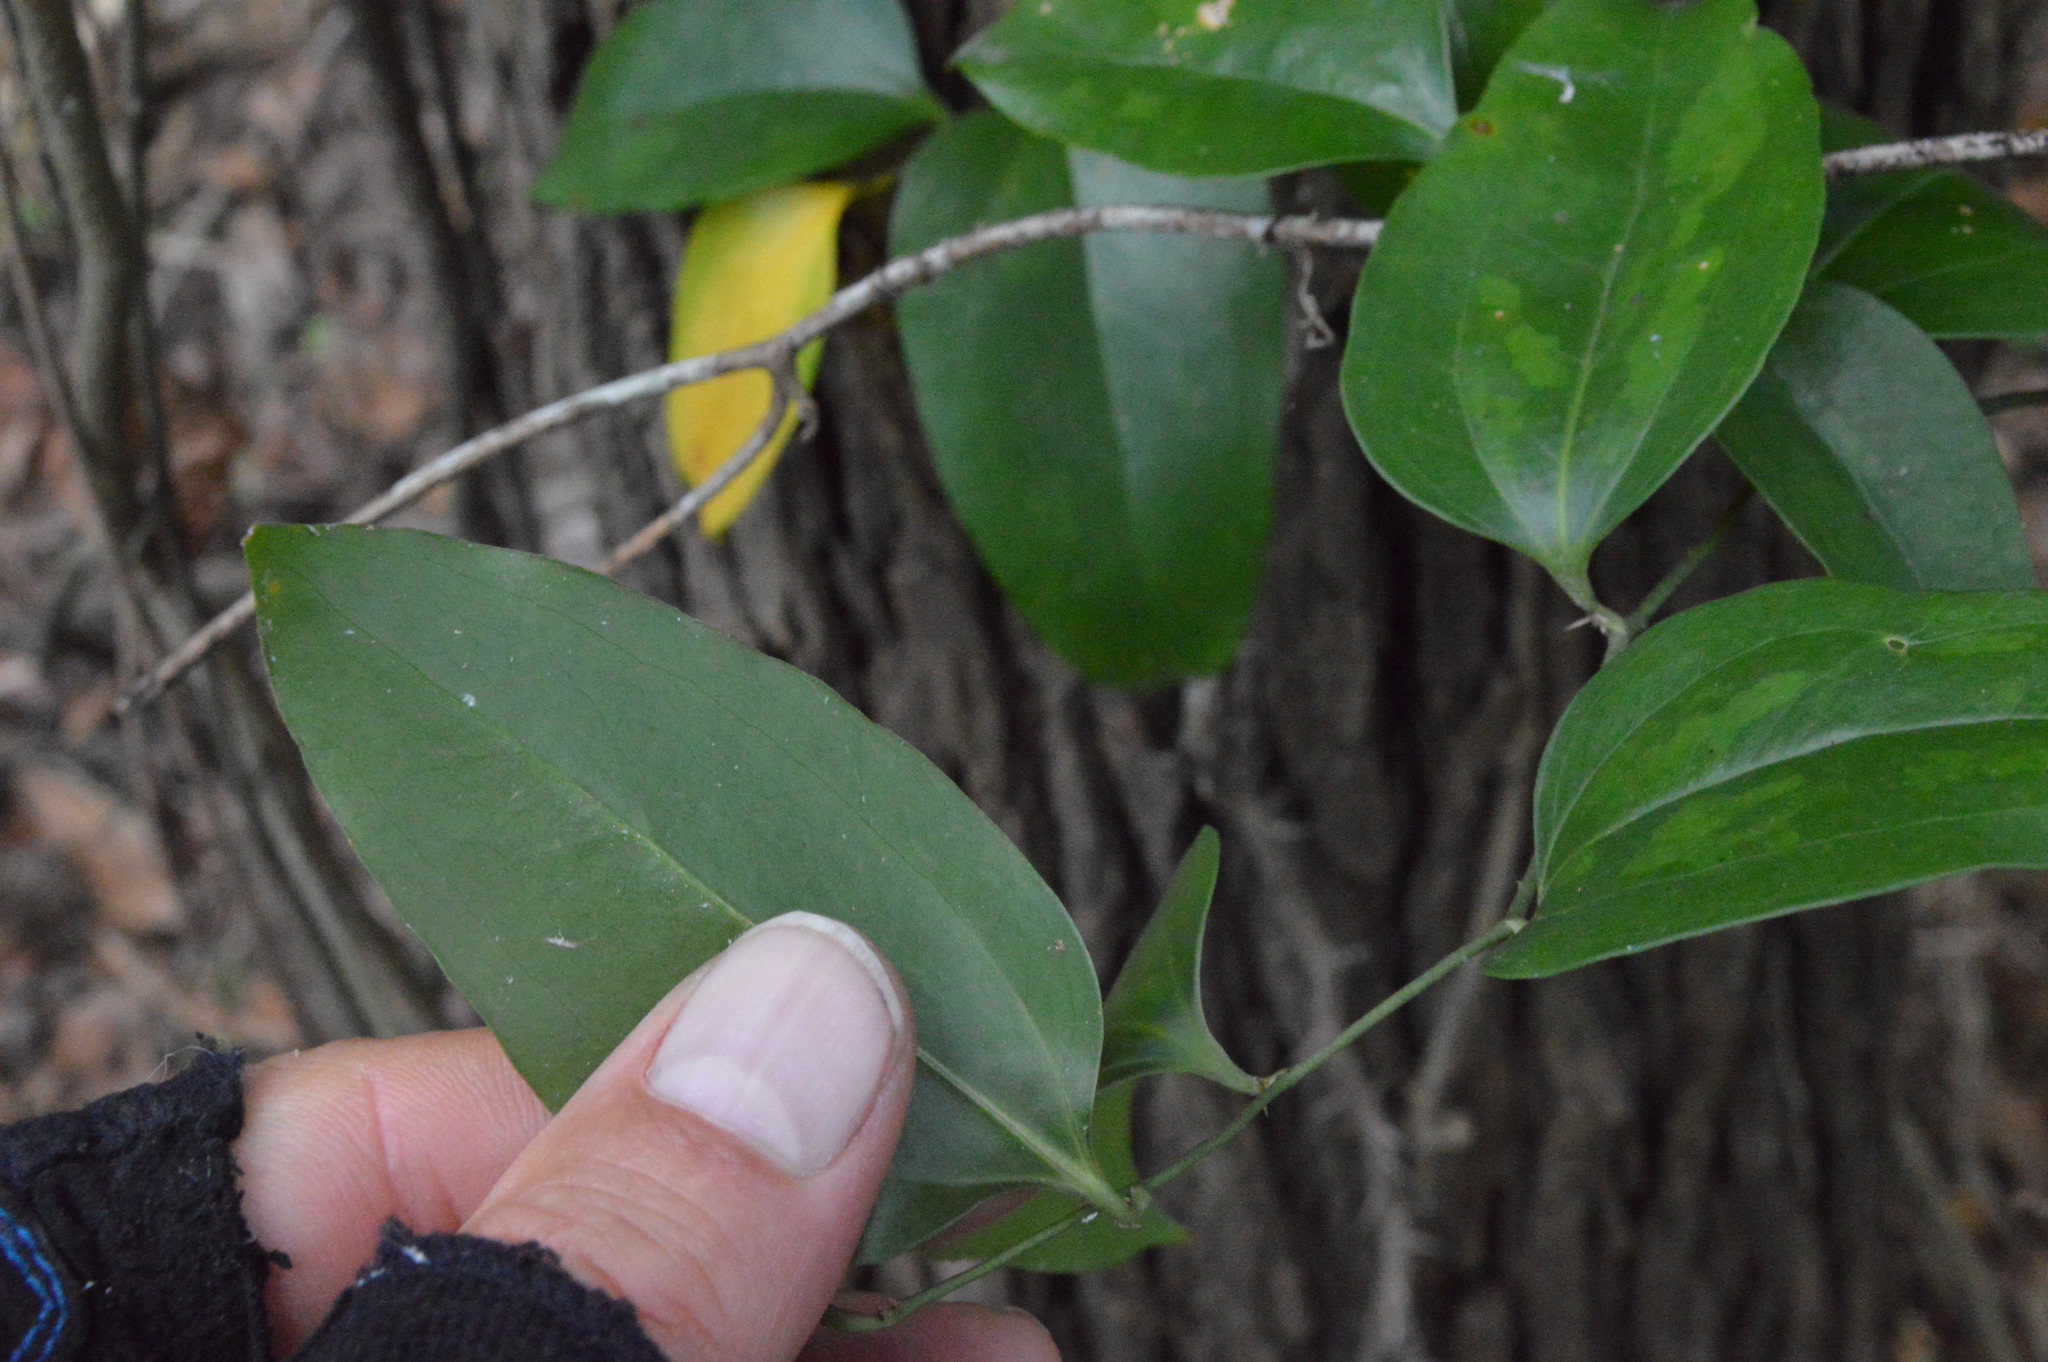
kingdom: Plantae
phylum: Tracheophyta
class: Liliopsida
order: Liliales
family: Smilacaceae
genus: Smilax
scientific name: Smilax maritima
